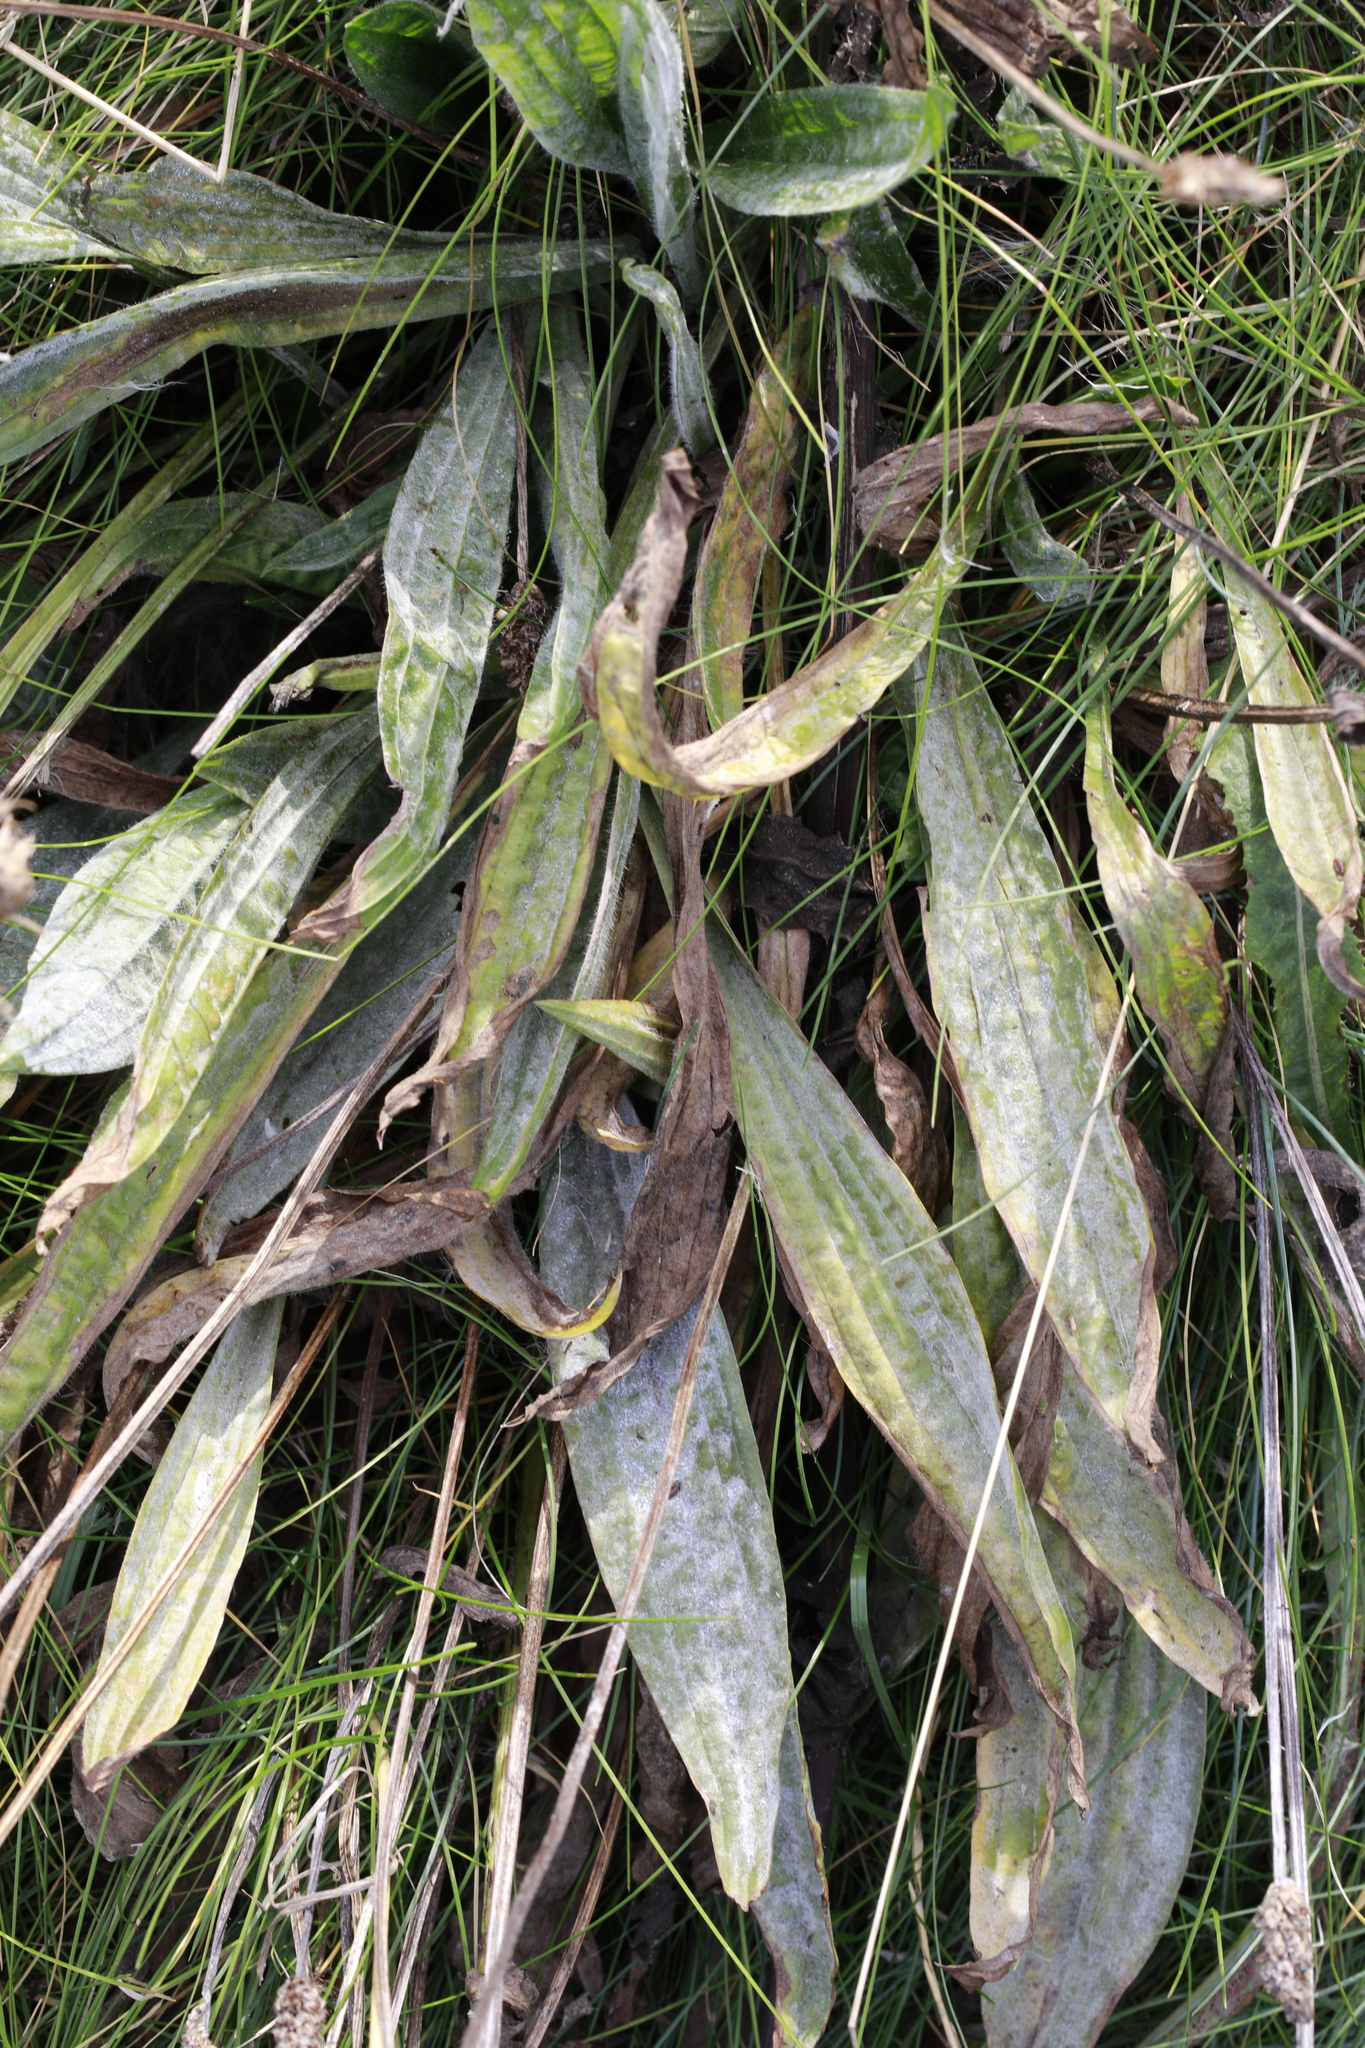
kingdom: Plantae
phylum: Tracheophyta
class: Magnoliopsida
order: Lamiales
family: Plantaginaceae
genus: Plantago
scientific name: Plantago lanceolata
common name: Ribwort plantain
